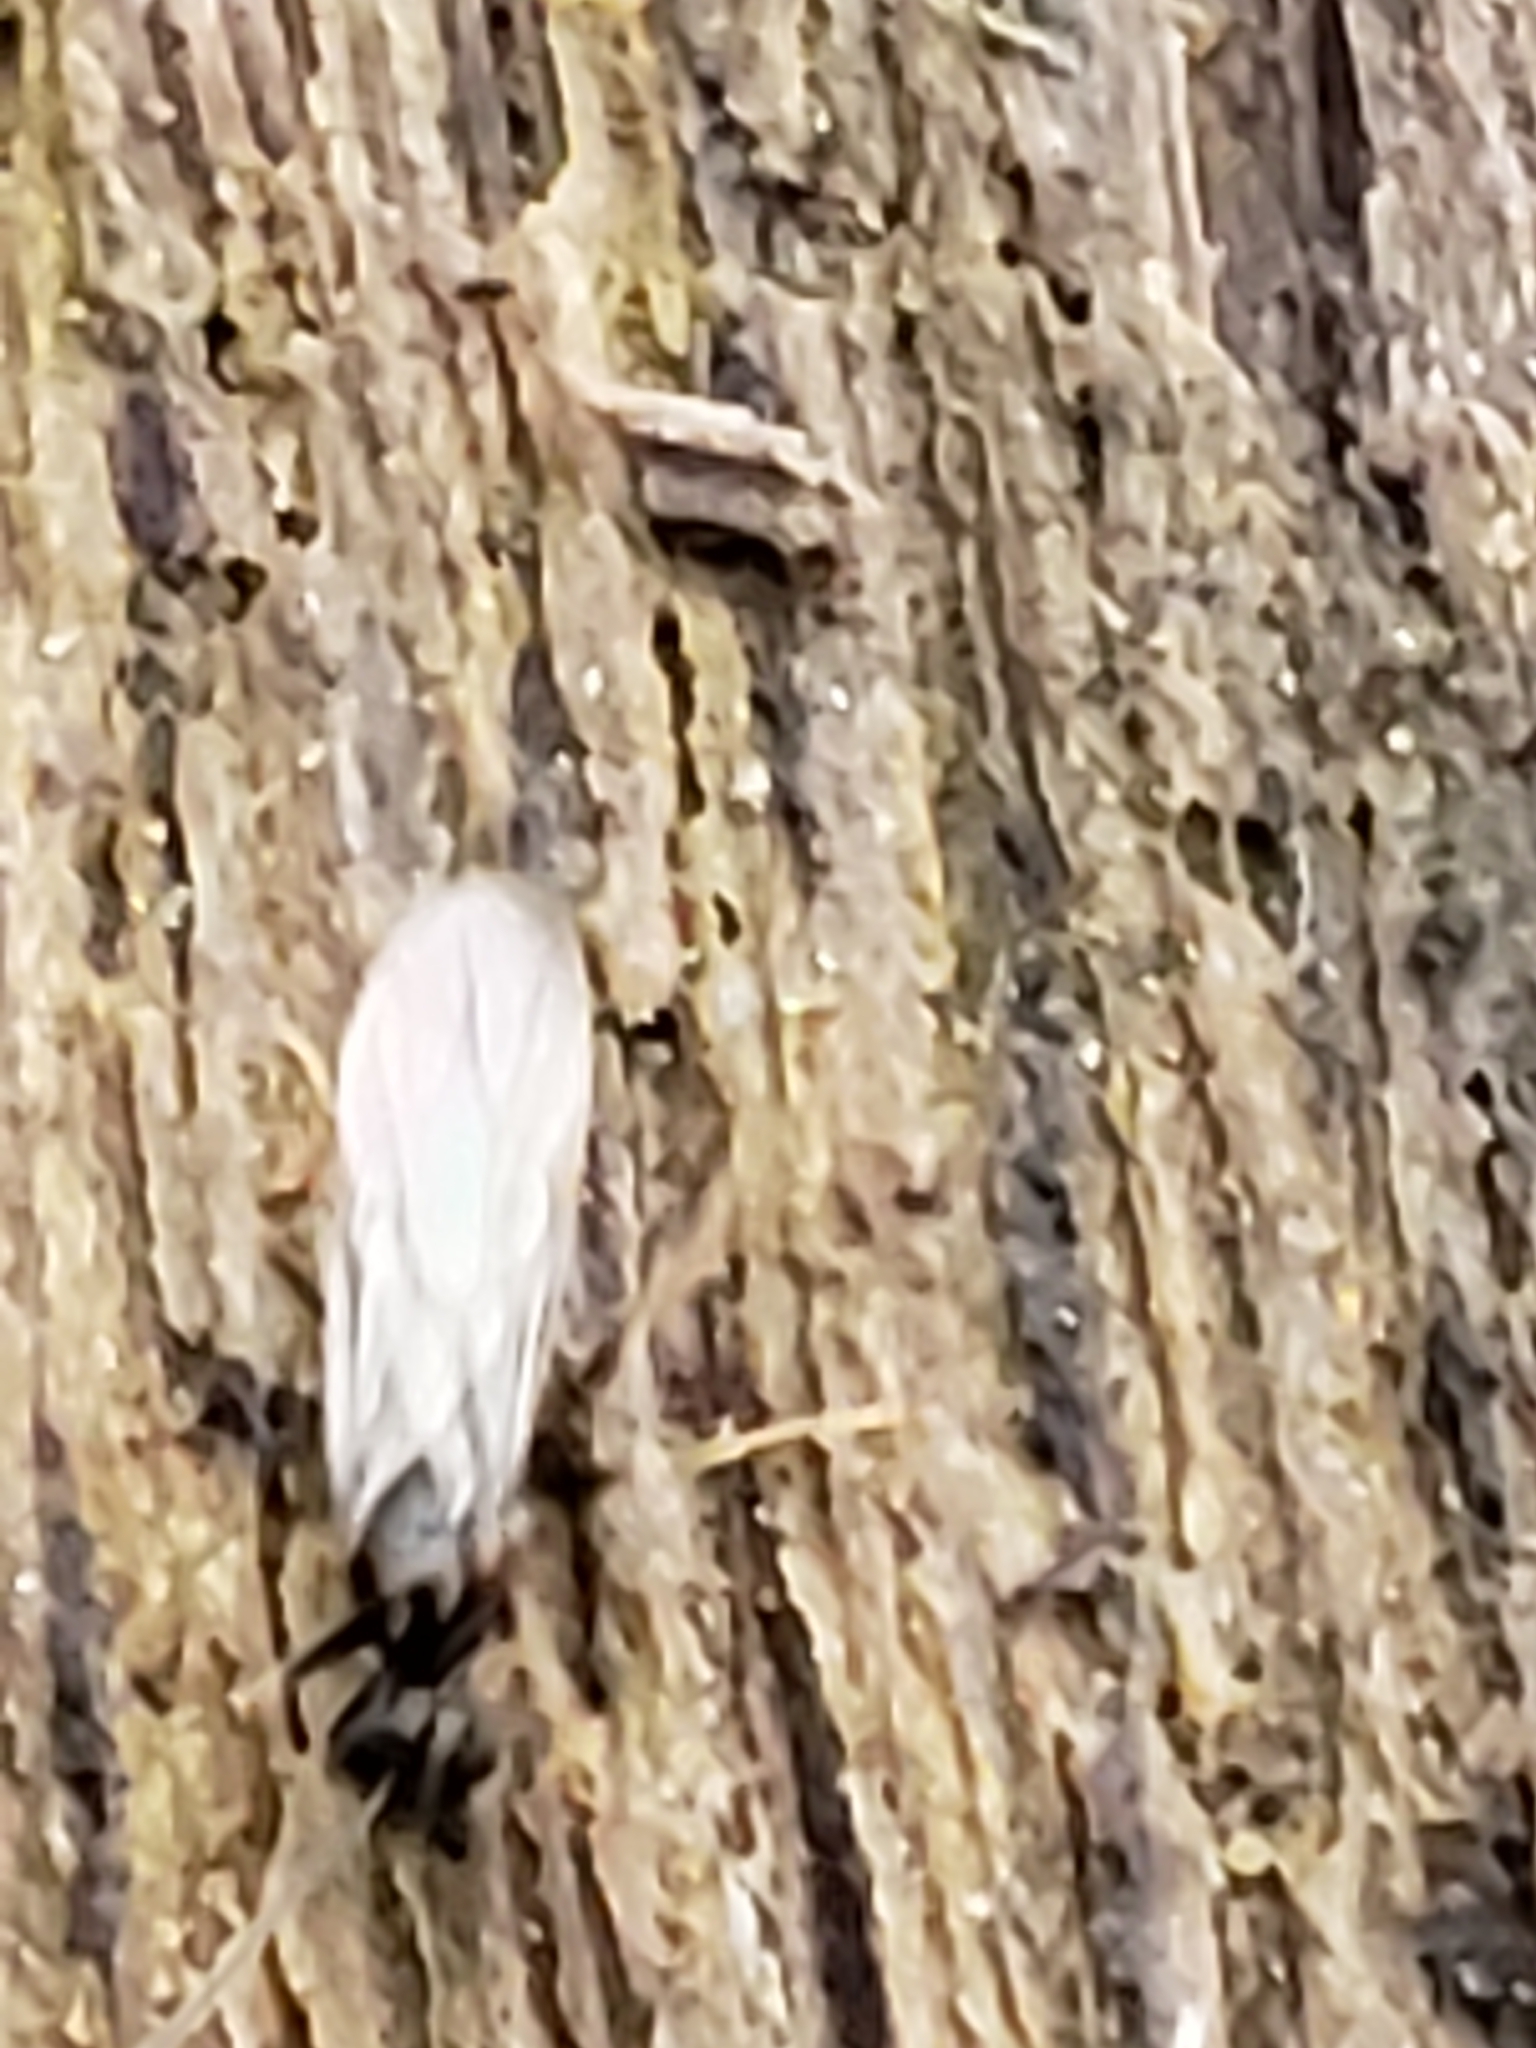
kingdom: Animalia
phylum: Arthropoda
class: Insecta
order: Hymenoptera
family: Formicidae
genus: Prenolepis
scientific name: Prenolepis imparis
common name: Small honey ant
